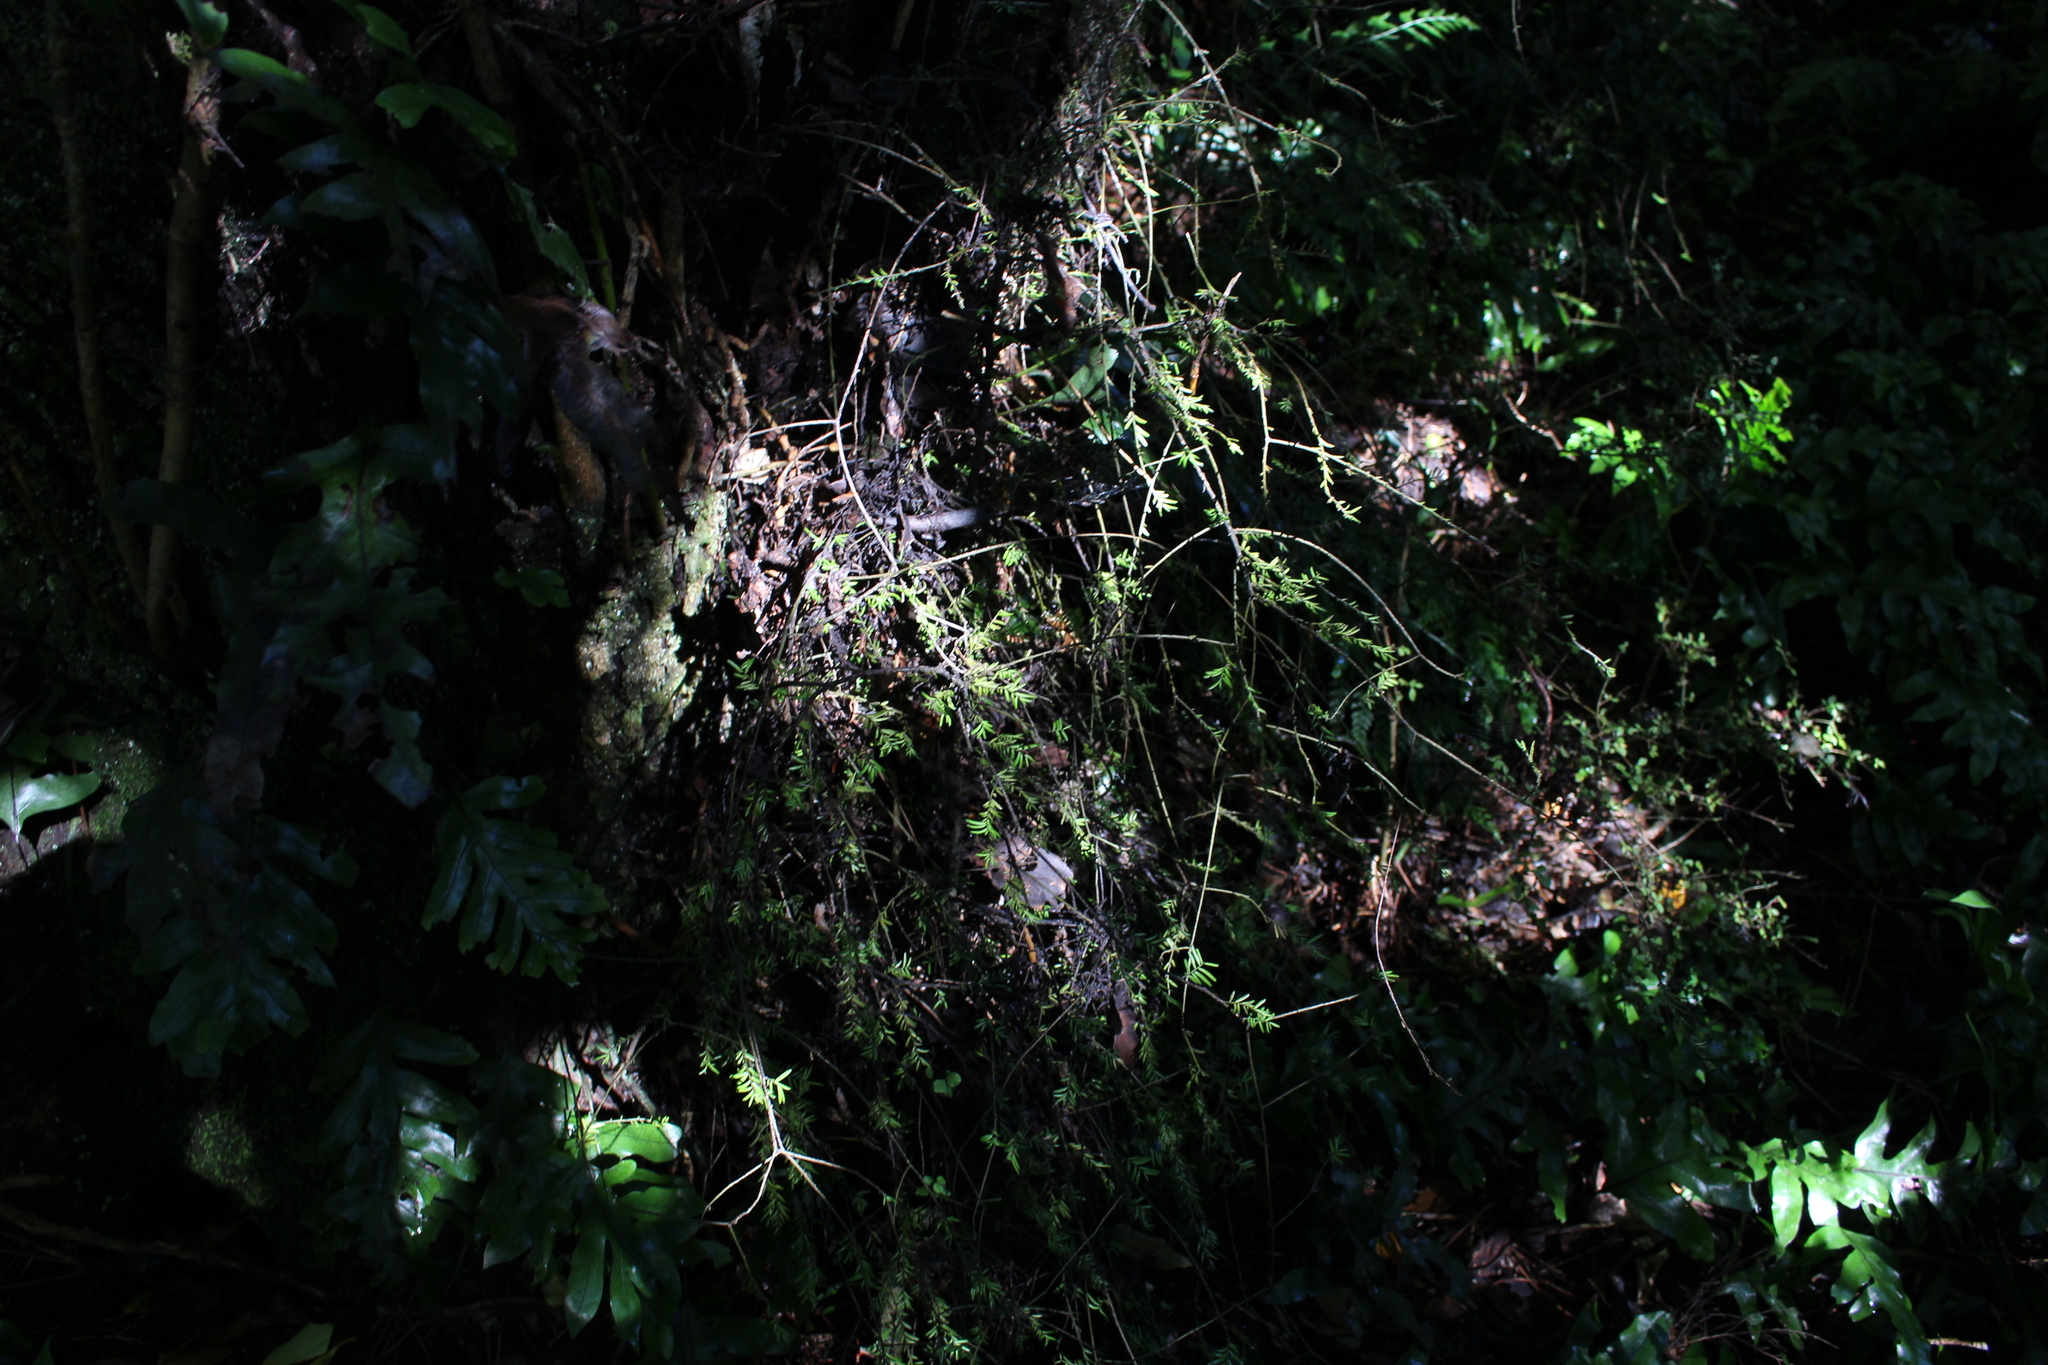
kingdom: Plantae
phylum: Tracheophyta
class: Pinopsida
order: Pinales
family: Podocarpaceae
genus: Prumnopitys
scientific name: Prumnopitys taxifolia
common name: Matai
